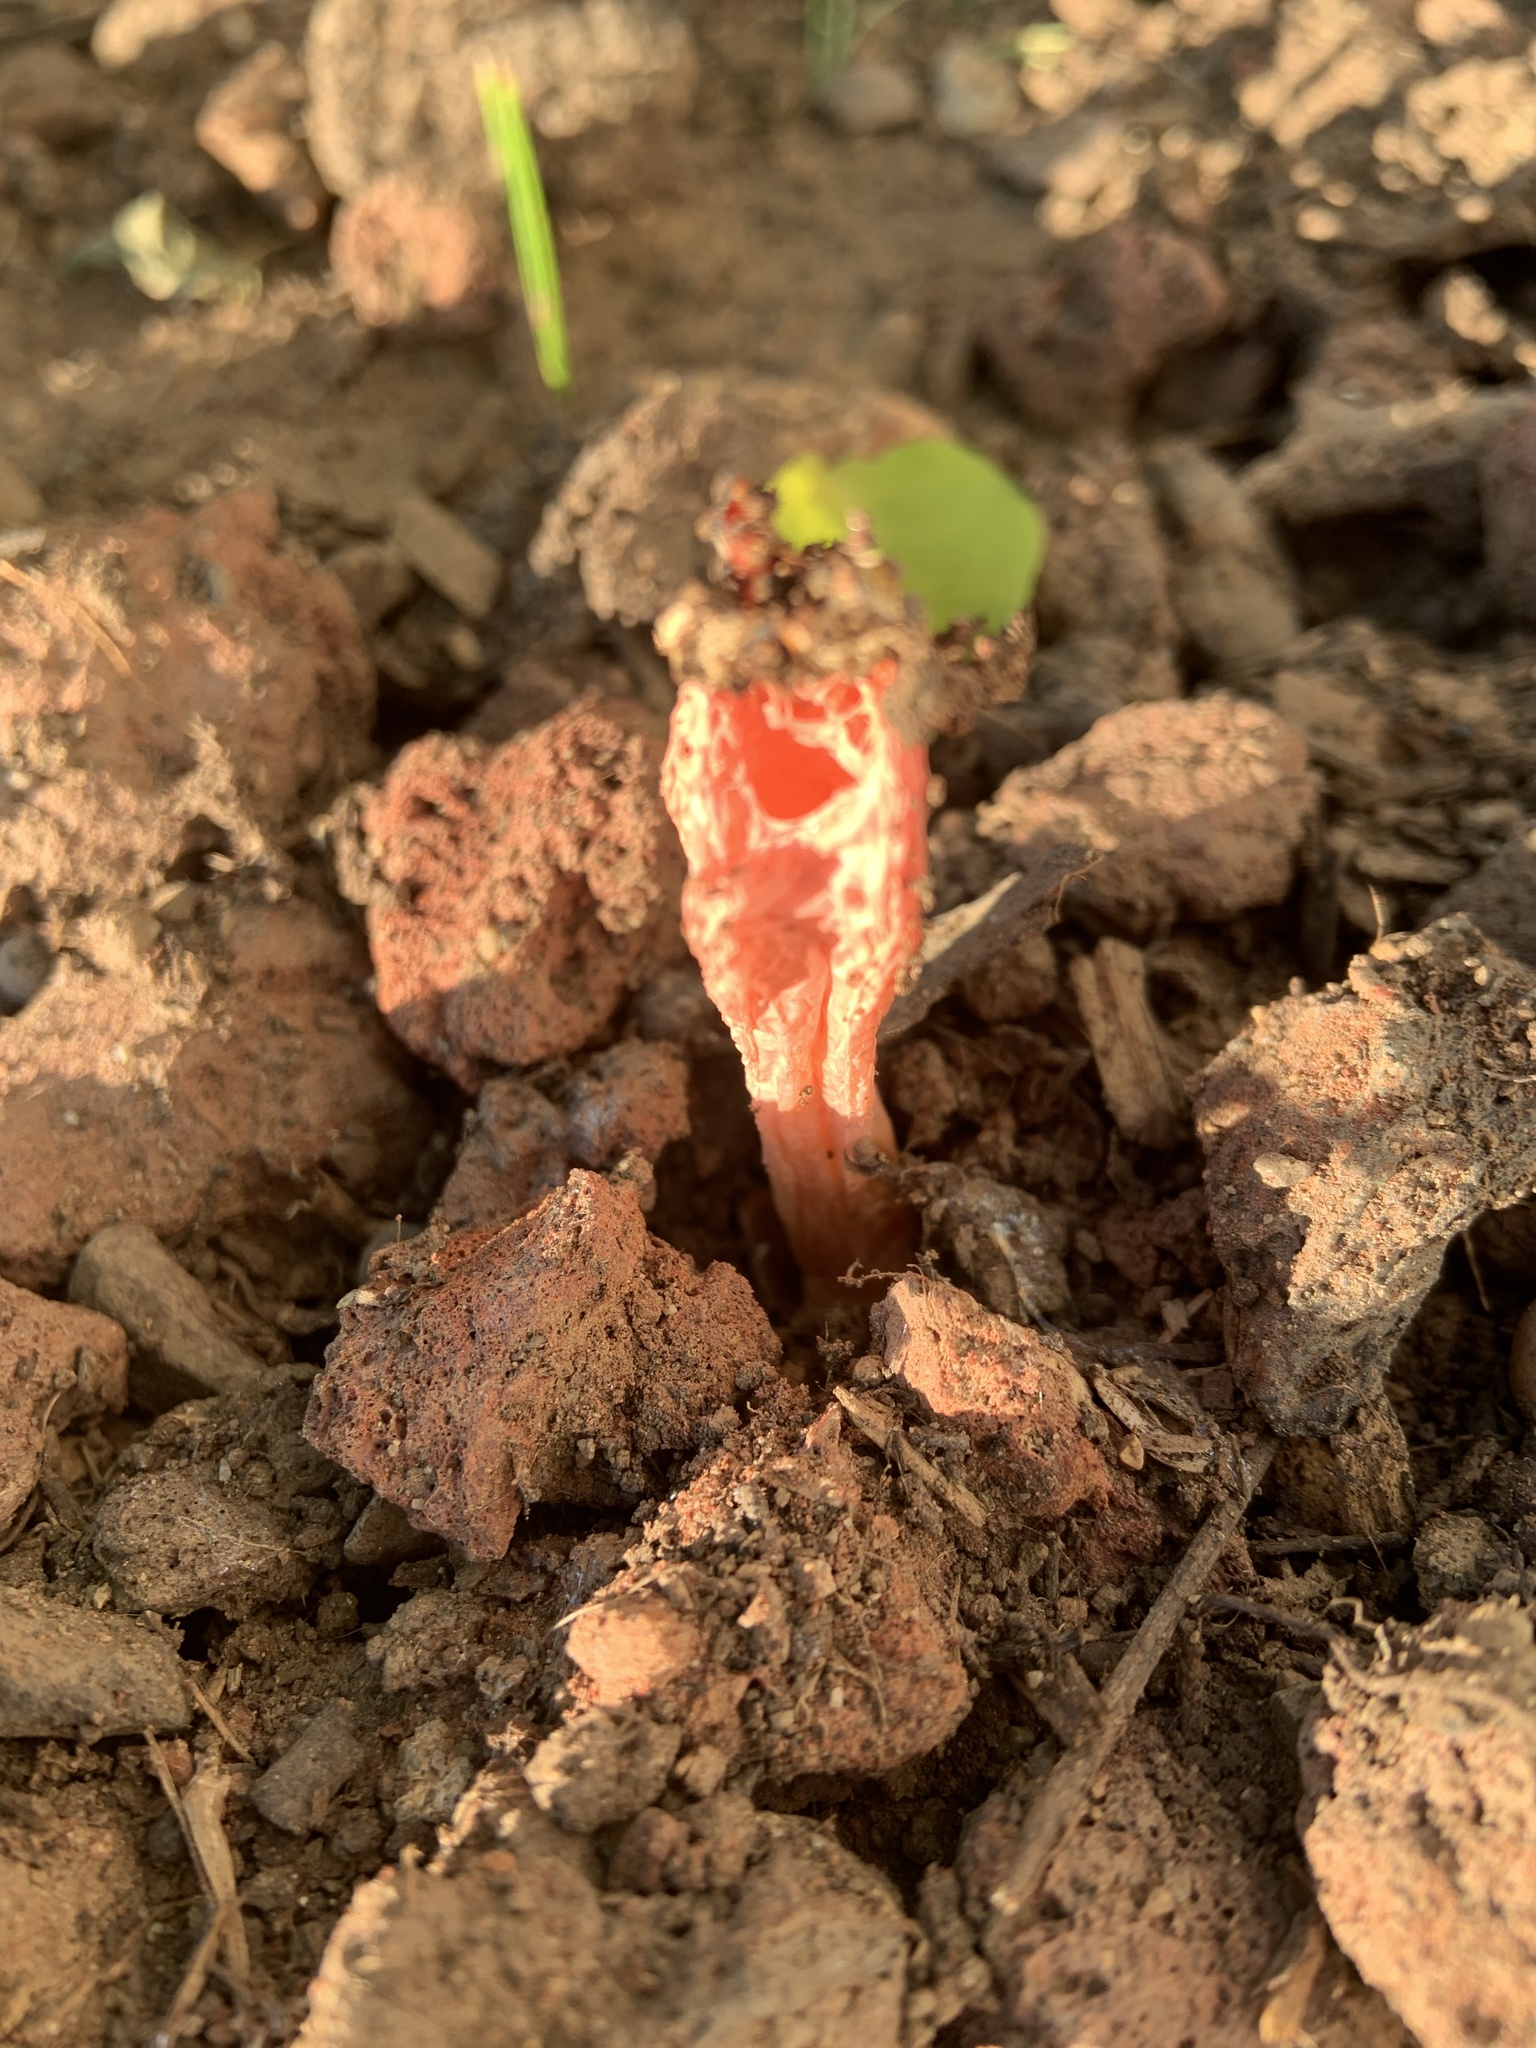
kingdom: Fungi
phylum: Basidiomycota
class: Agaricomycetes
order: Phallales
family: Phallaceae
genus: Lysurus
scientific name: Lysurus mokusin
